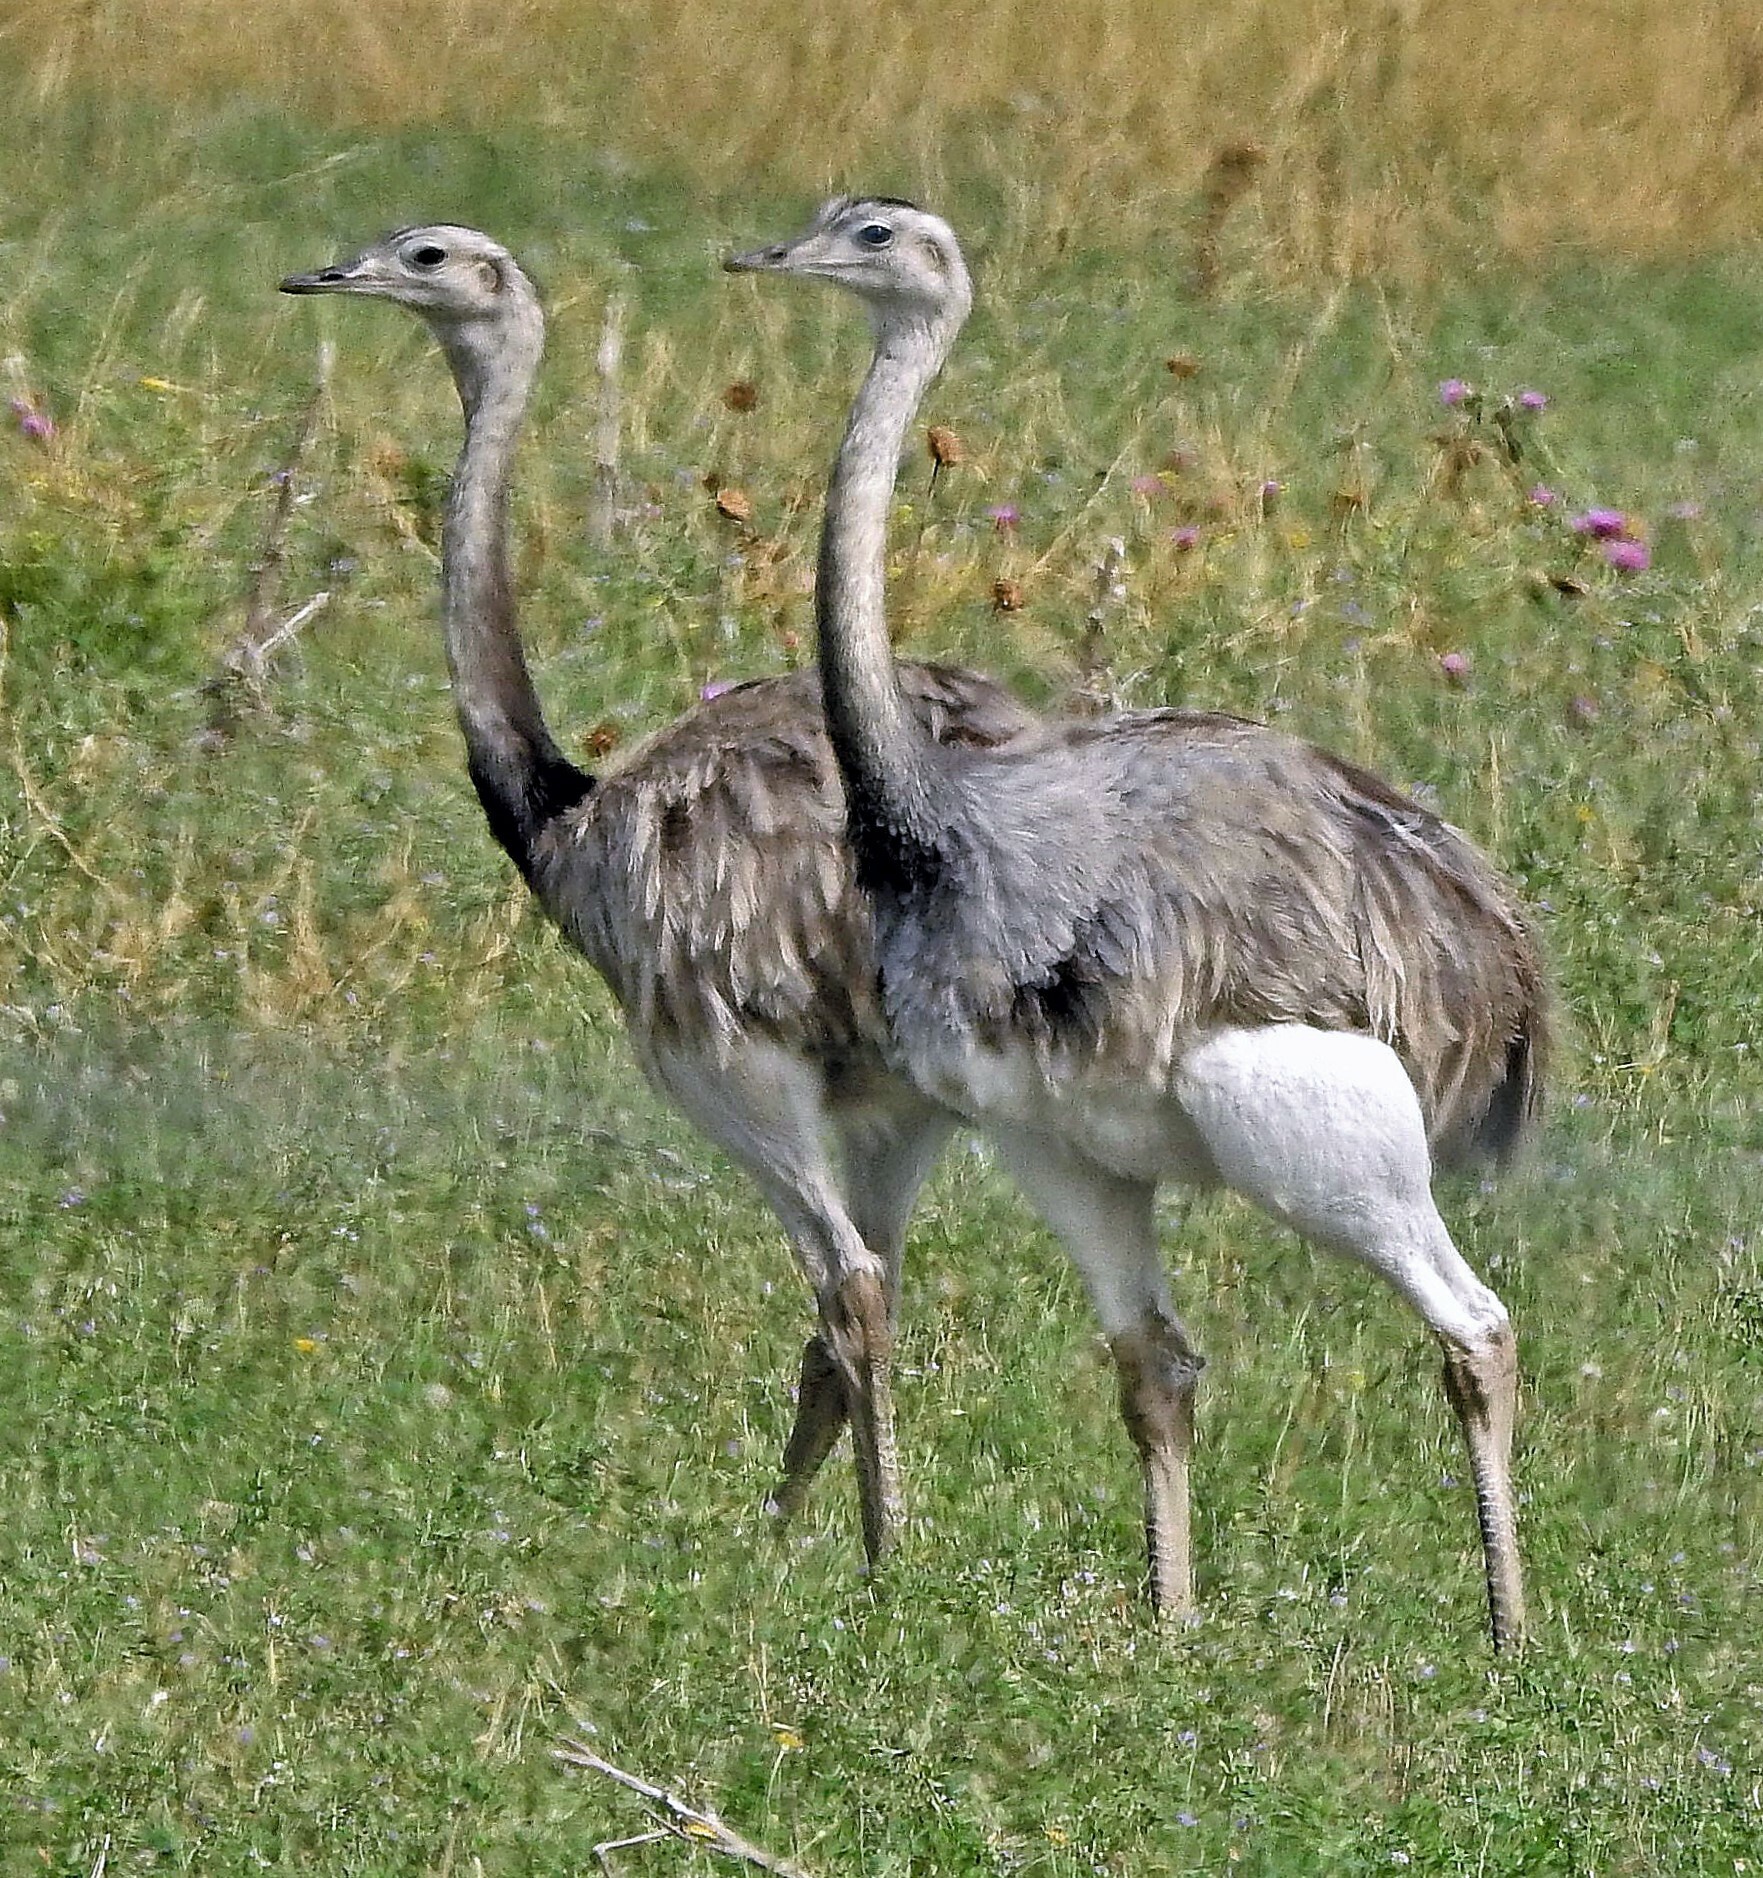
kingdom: Animalia
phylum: Chordata
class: Aves
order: Rheiformes
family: Rheidae
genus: Rhea
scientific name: Rhea americana
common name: Greater rhea
